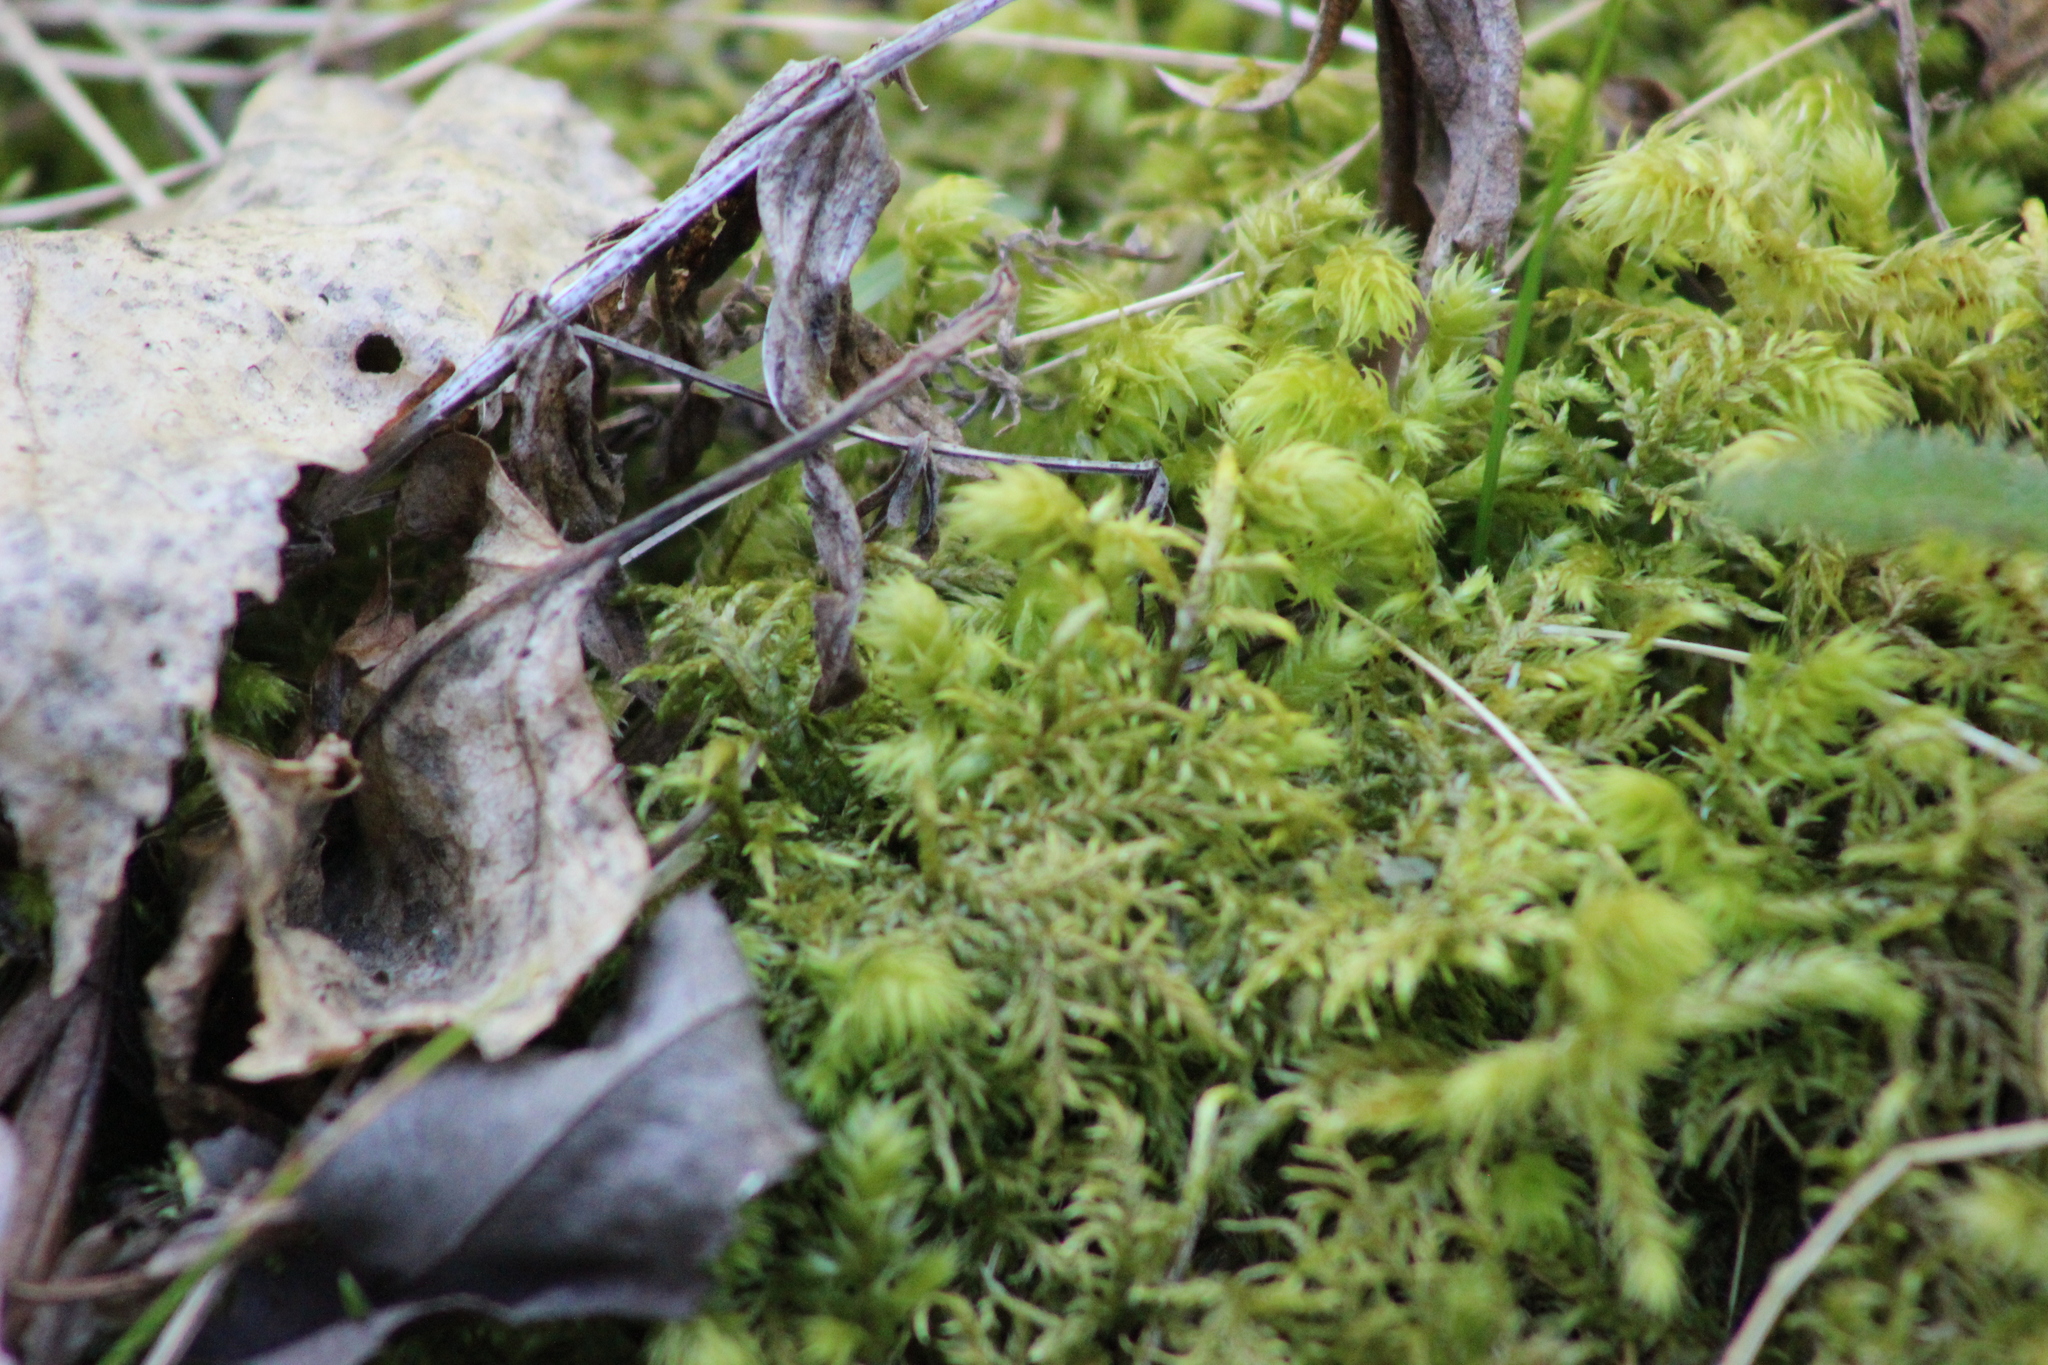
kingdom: Plantae
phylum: Bryophyta
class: Bryopsida
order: Hypnales
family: Hylocomiaceae
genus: Hylocomiadelphus
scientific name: Hylocomiadelphus triquetrus
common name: Rough goose neck moss
